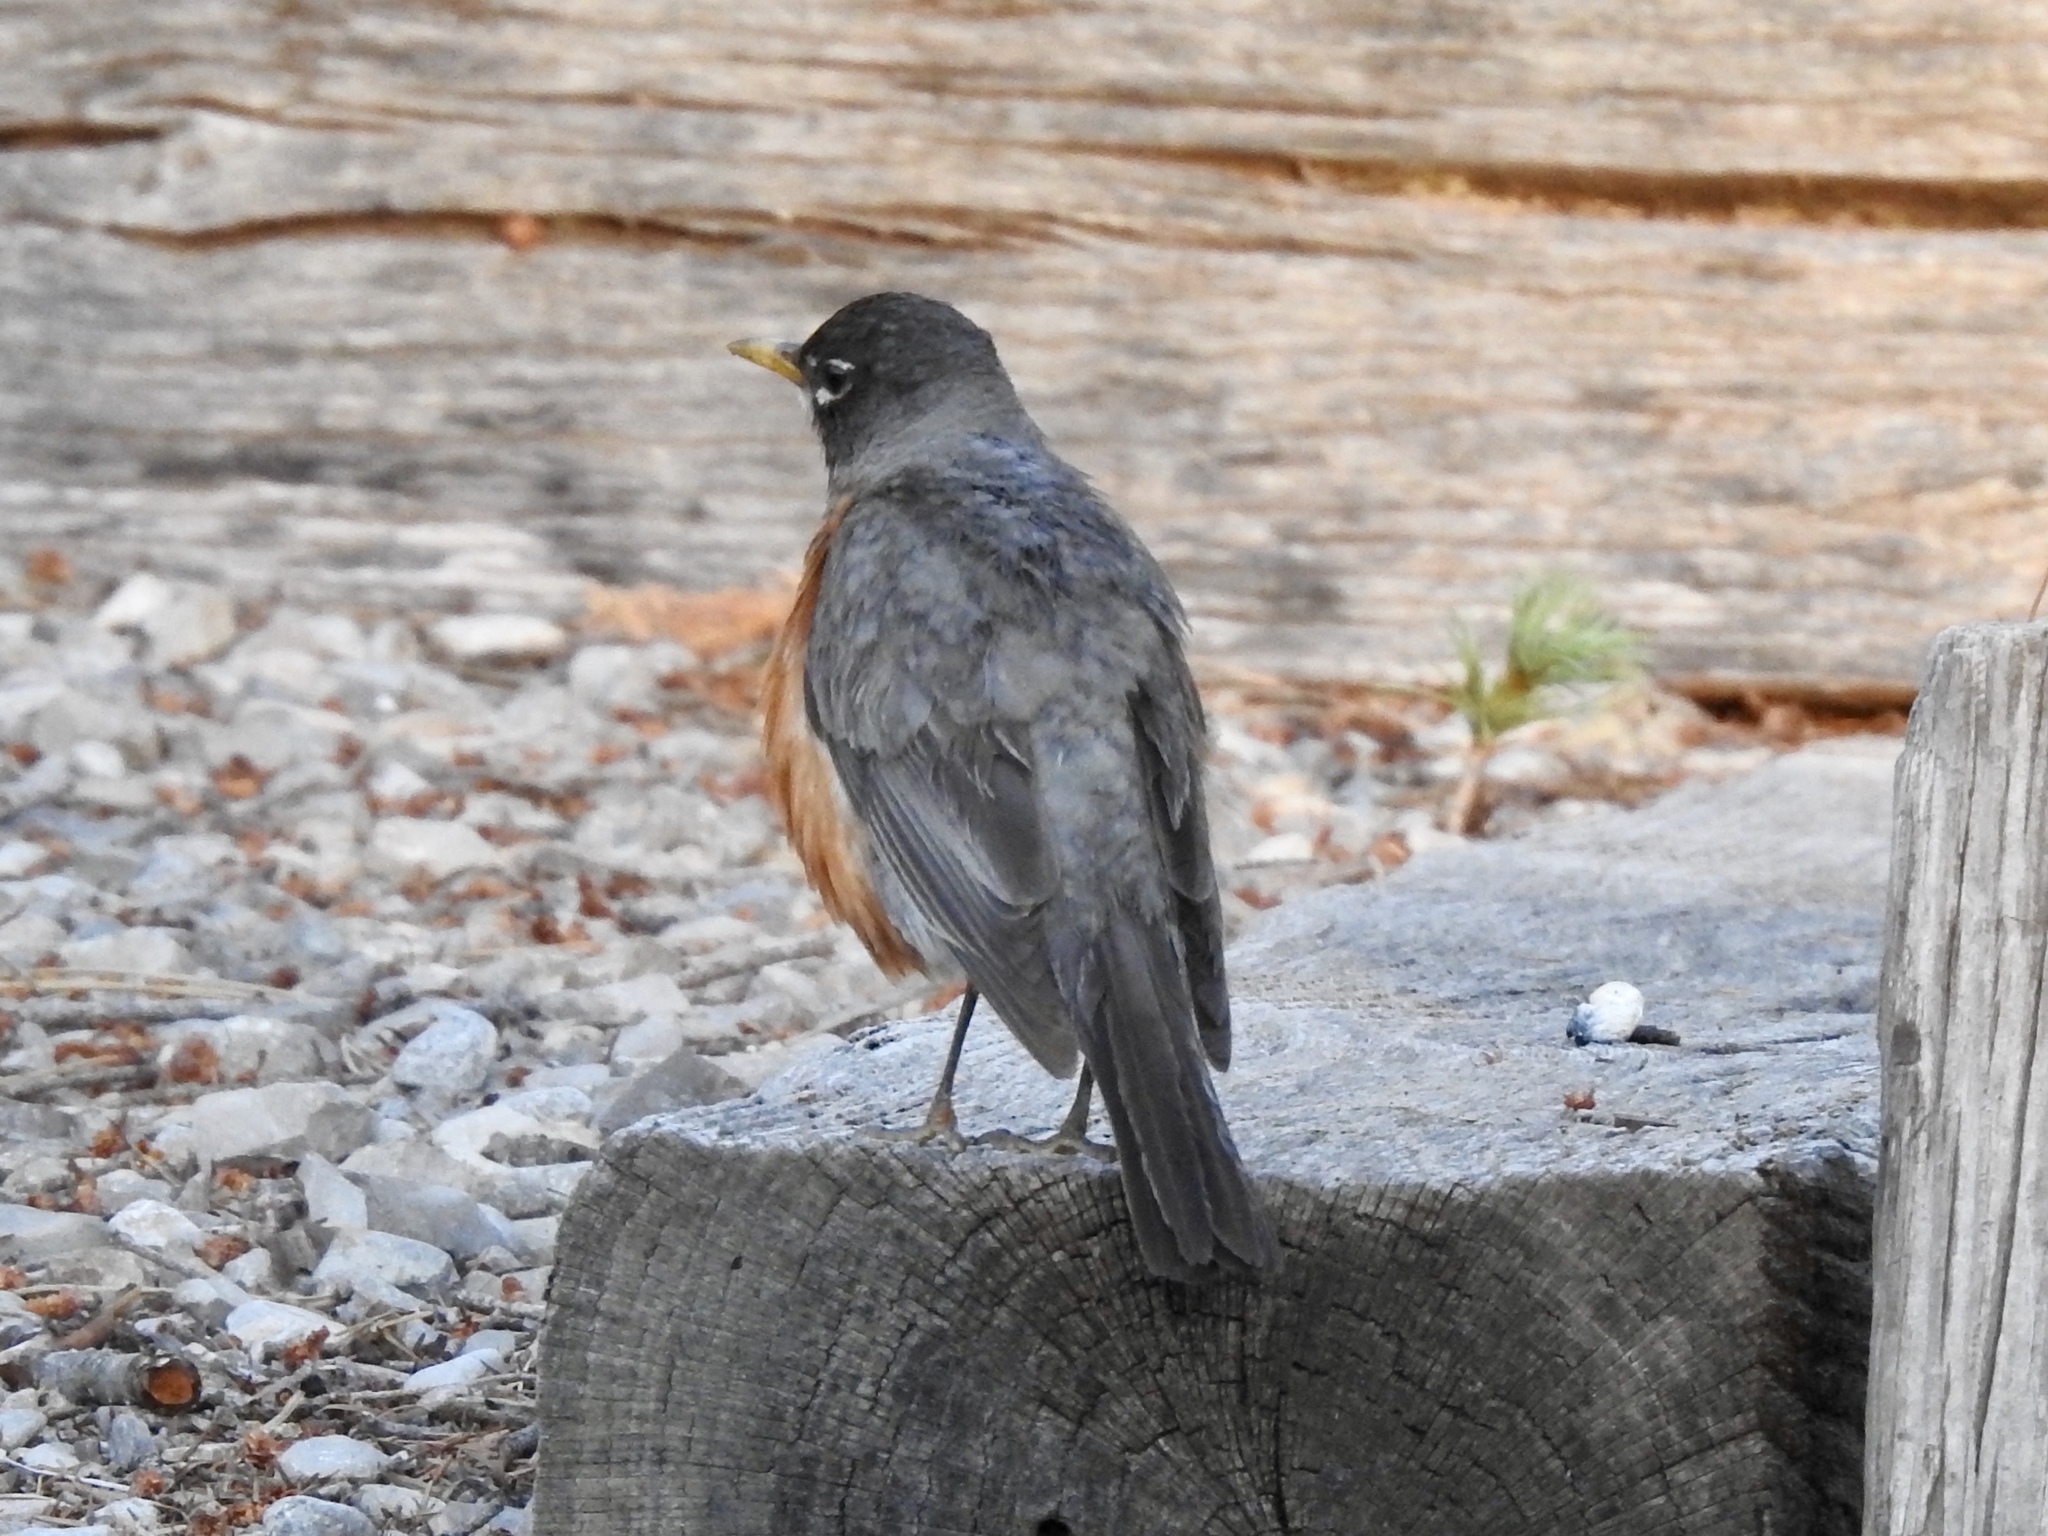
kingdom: Animalia
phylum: Chordata
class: Aves
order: Passeriformes
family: Turdidae
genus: Turdus
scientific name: Turdus migratorius
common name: American robin
